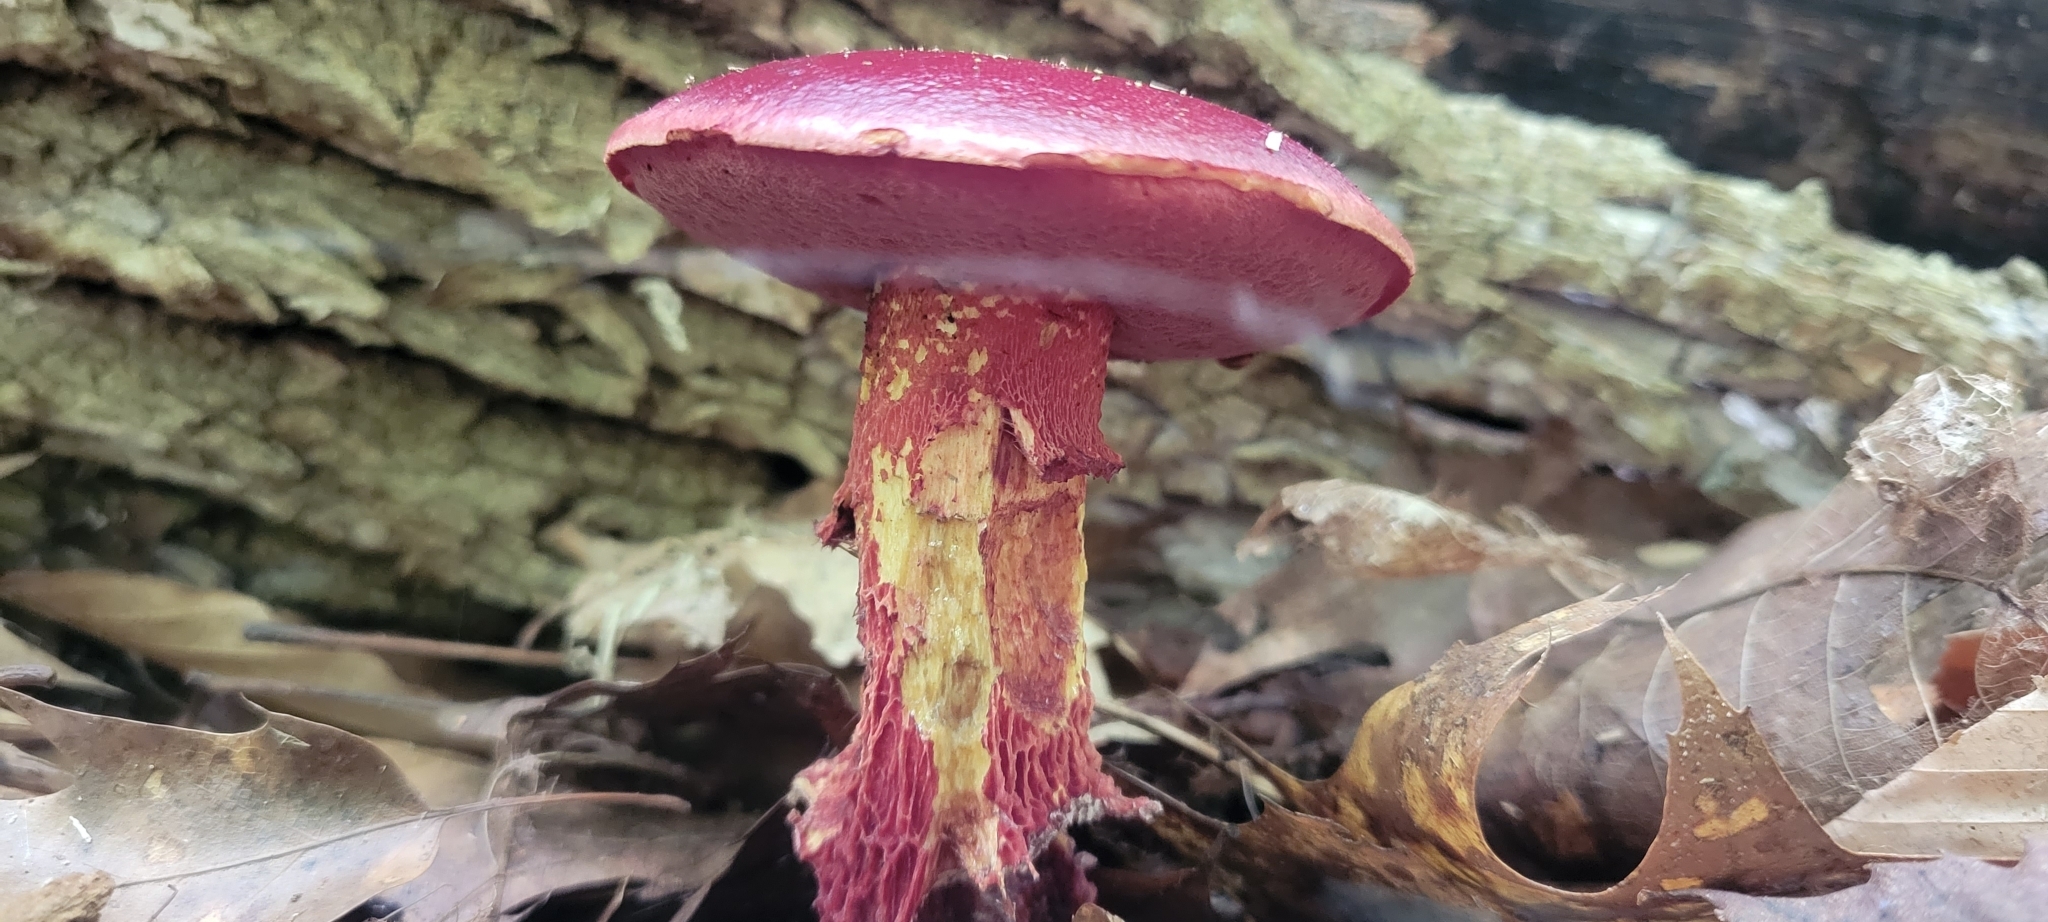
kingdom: Fungi
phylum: Basidiomycota
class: Agaricomycetes
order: Boletales
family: Boletaceae
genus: Butyriboletus
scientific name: Butyriboletus frostii
